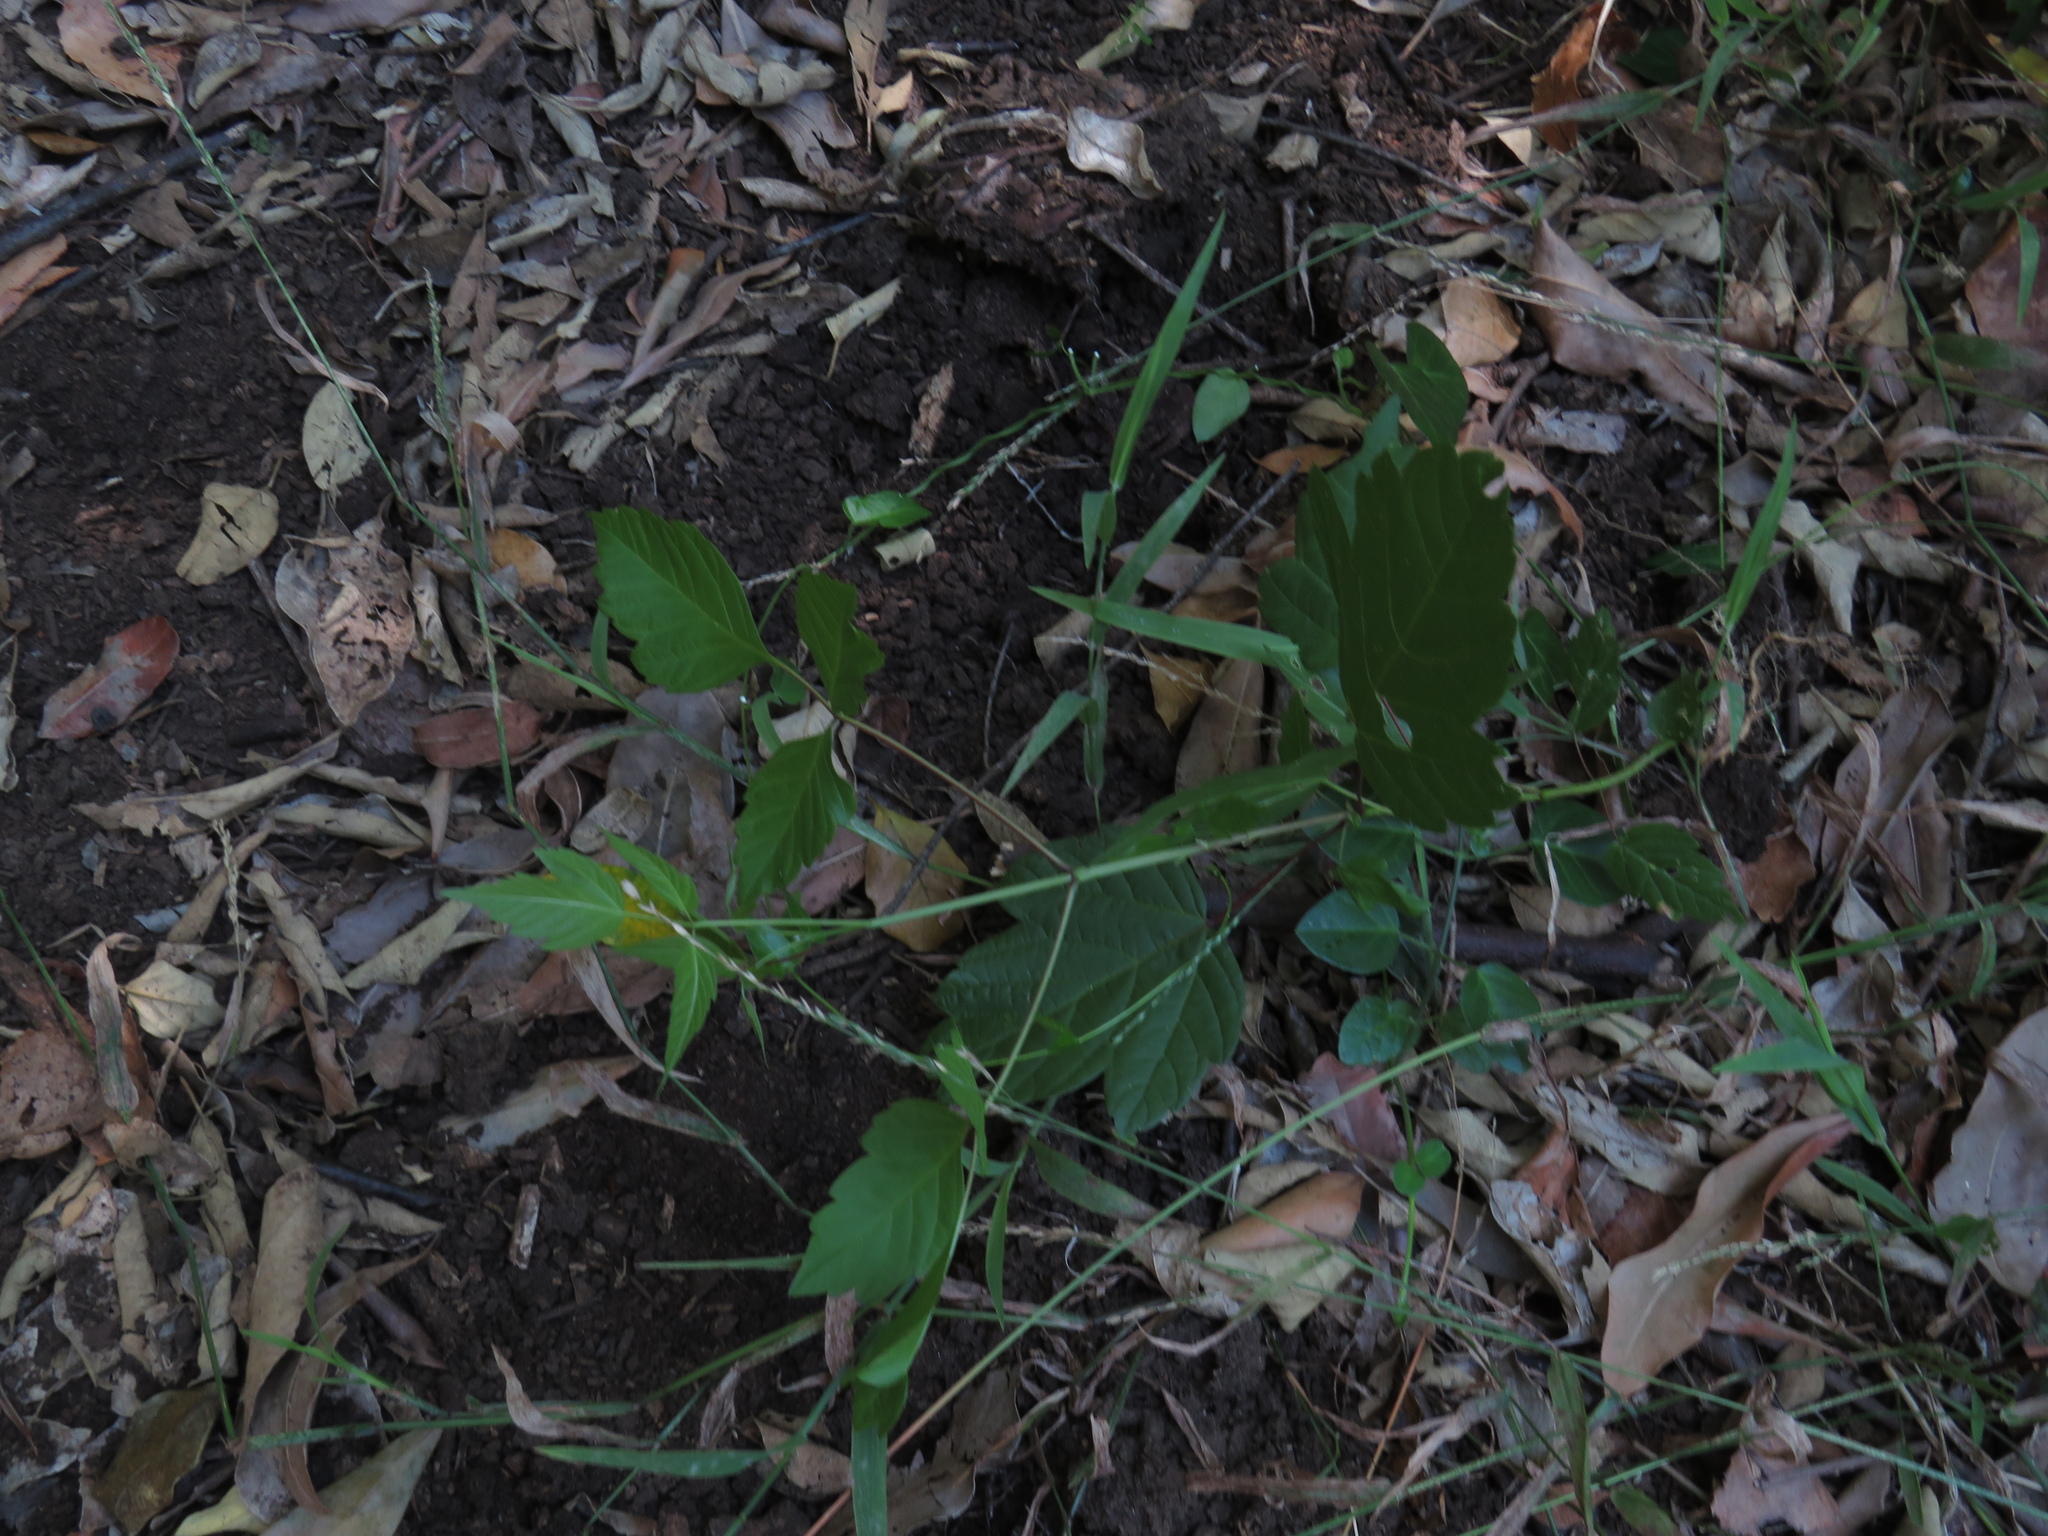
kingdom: Plantae
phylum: Tracheophyta
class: Magnoliopsida
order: Sapindales
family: Sapindaceae
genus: Acer
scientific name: Acer negundo
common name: Ashleaf maple
